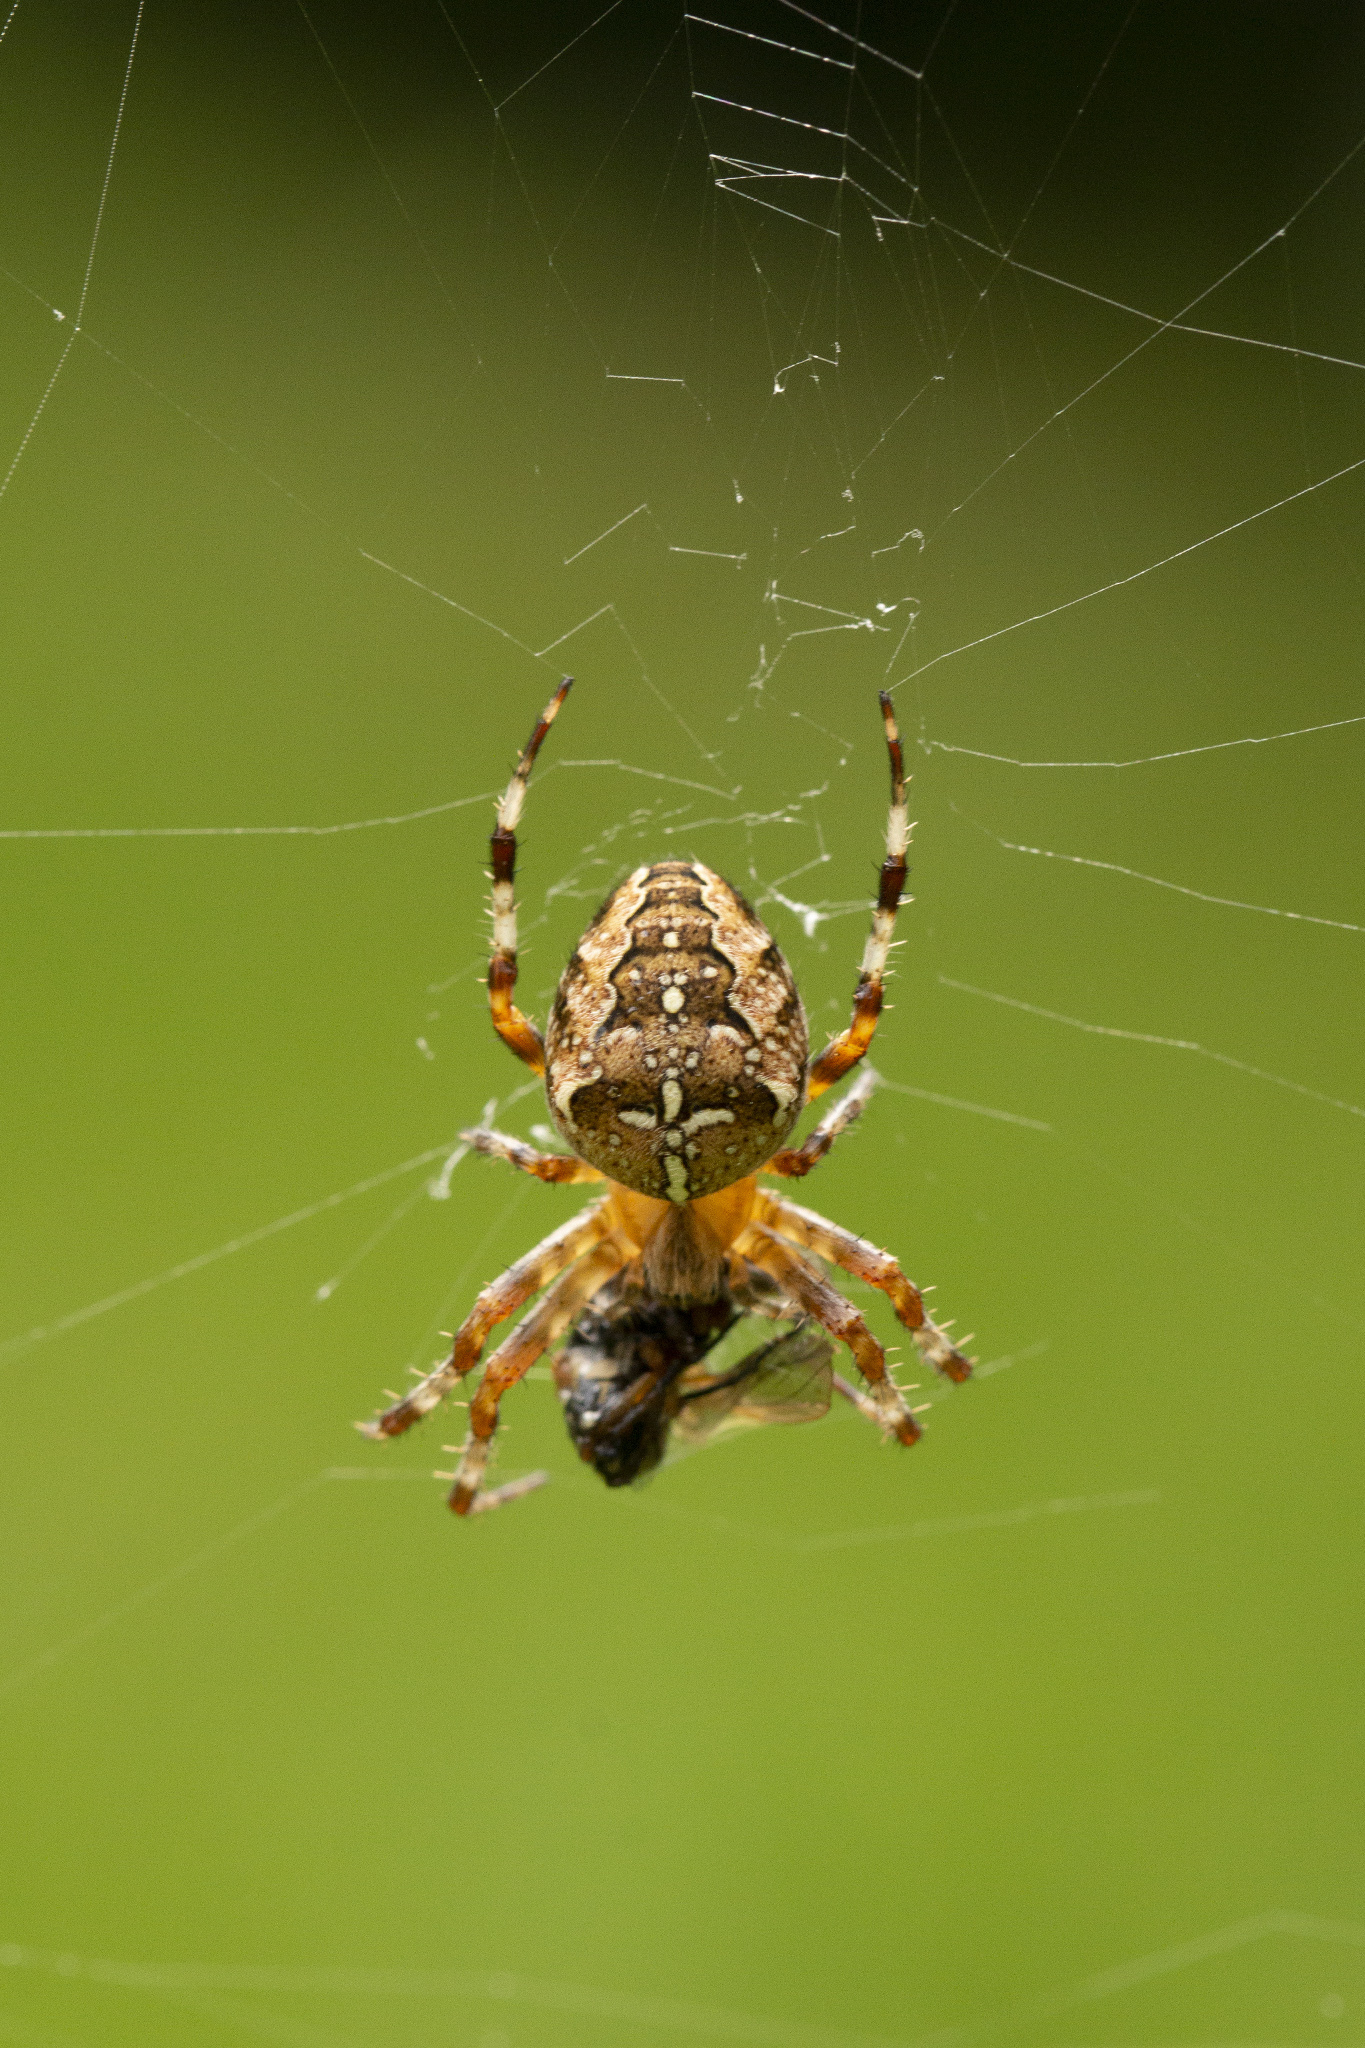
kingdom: Animalia
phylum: Arthropoda
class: Arachnida
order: Araneae
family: Araneidae
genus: Araneus
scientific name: Araneus diadematus
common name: Cross orbweaver
